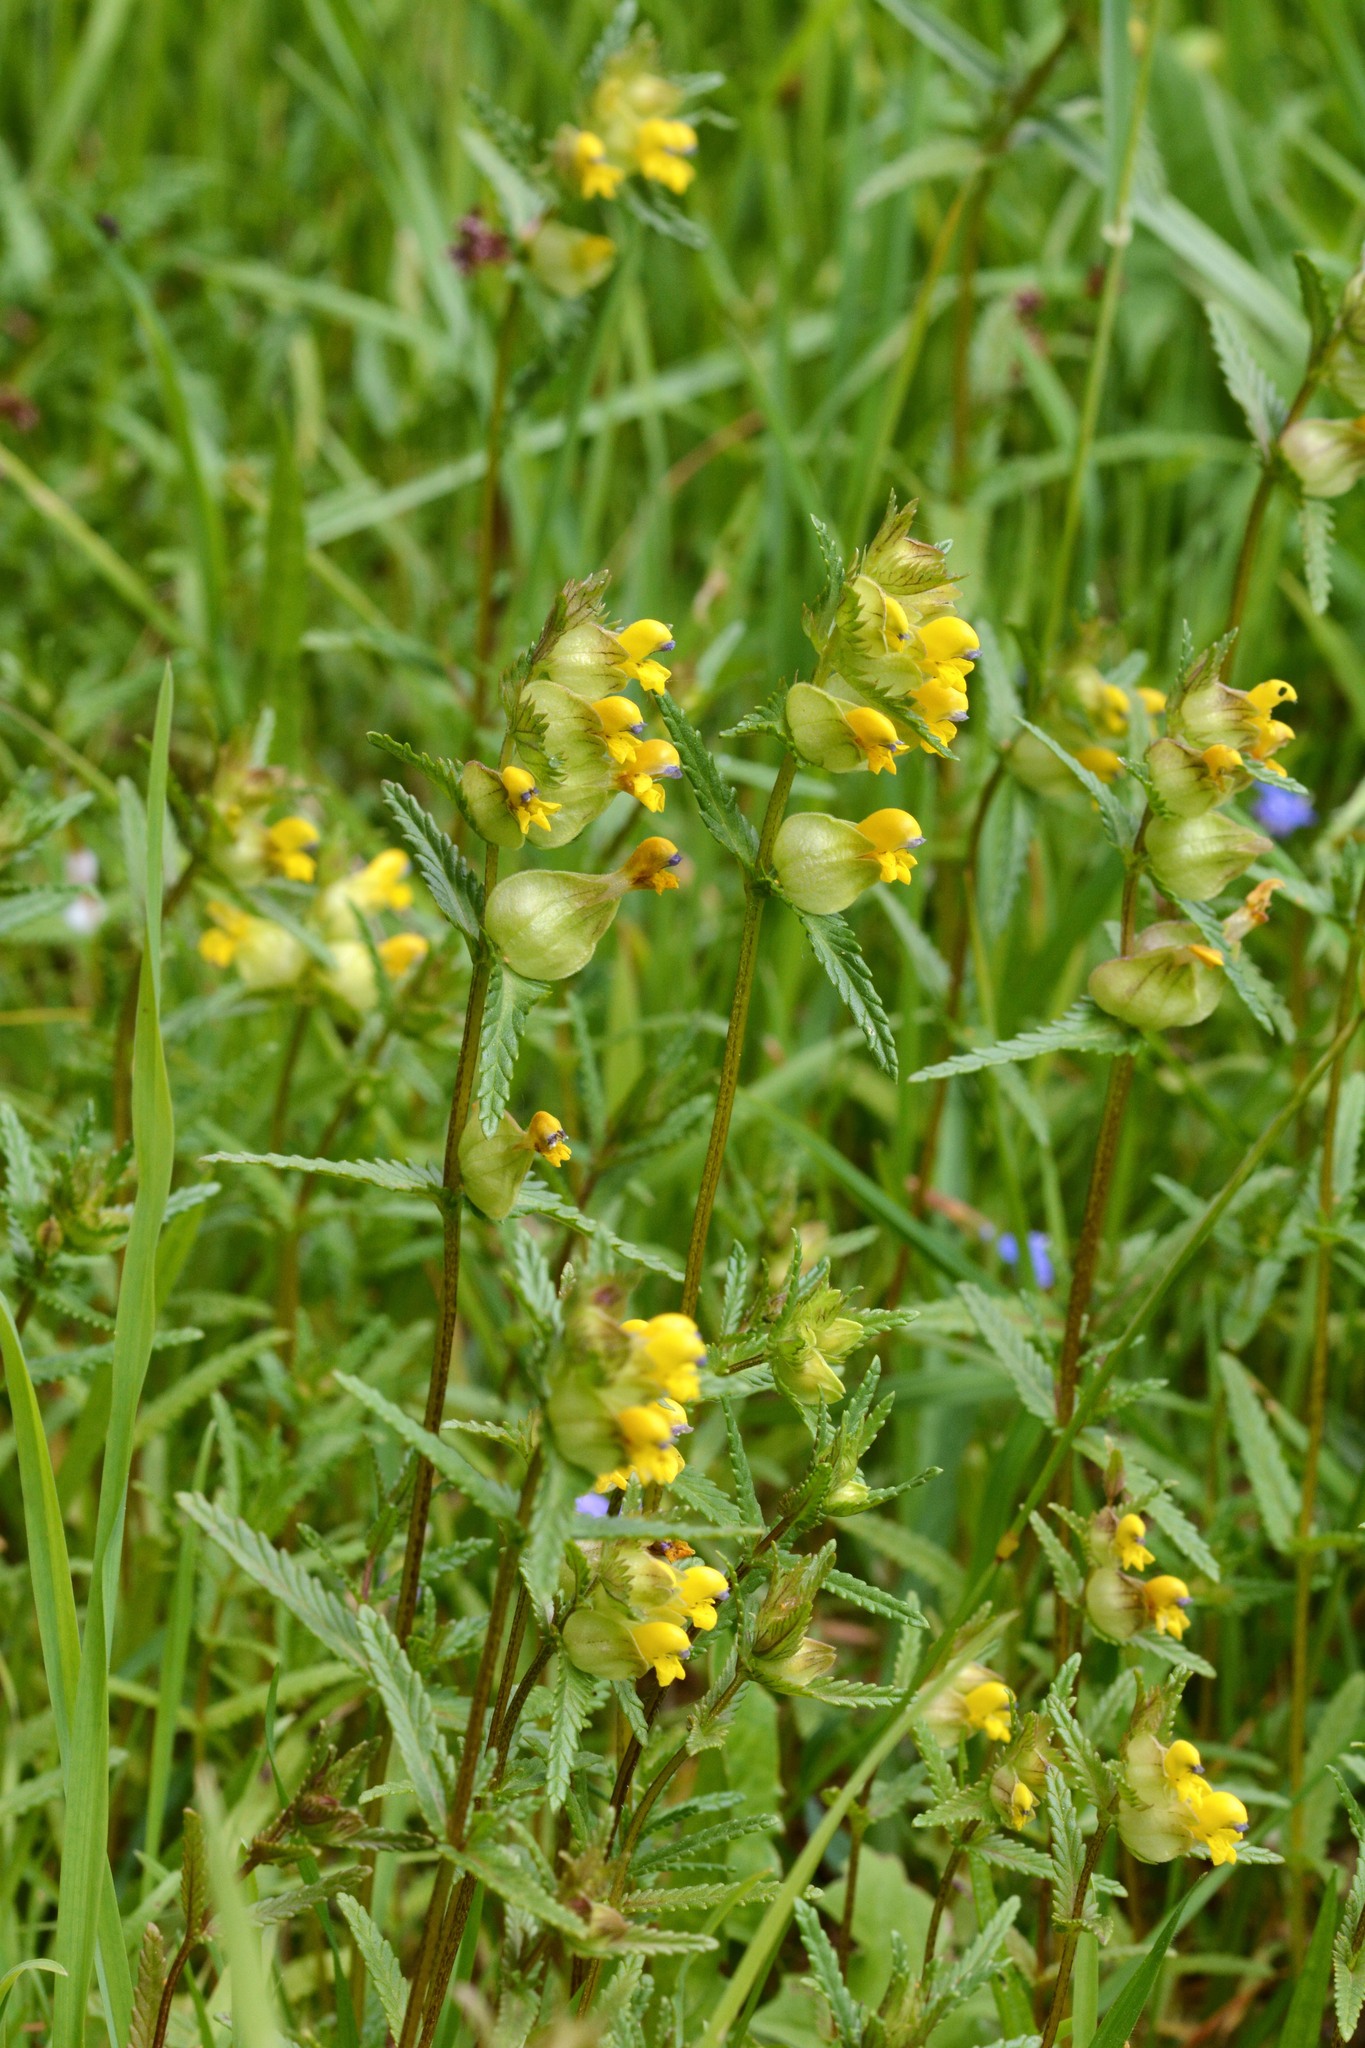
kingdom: Plantae
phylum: Tracheophyta
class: Magnoliopsida
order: Lamiales
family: Orobanchaceae
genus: Rhinanthus
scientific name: Rhinanthus minor
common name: Yellow-rattle
